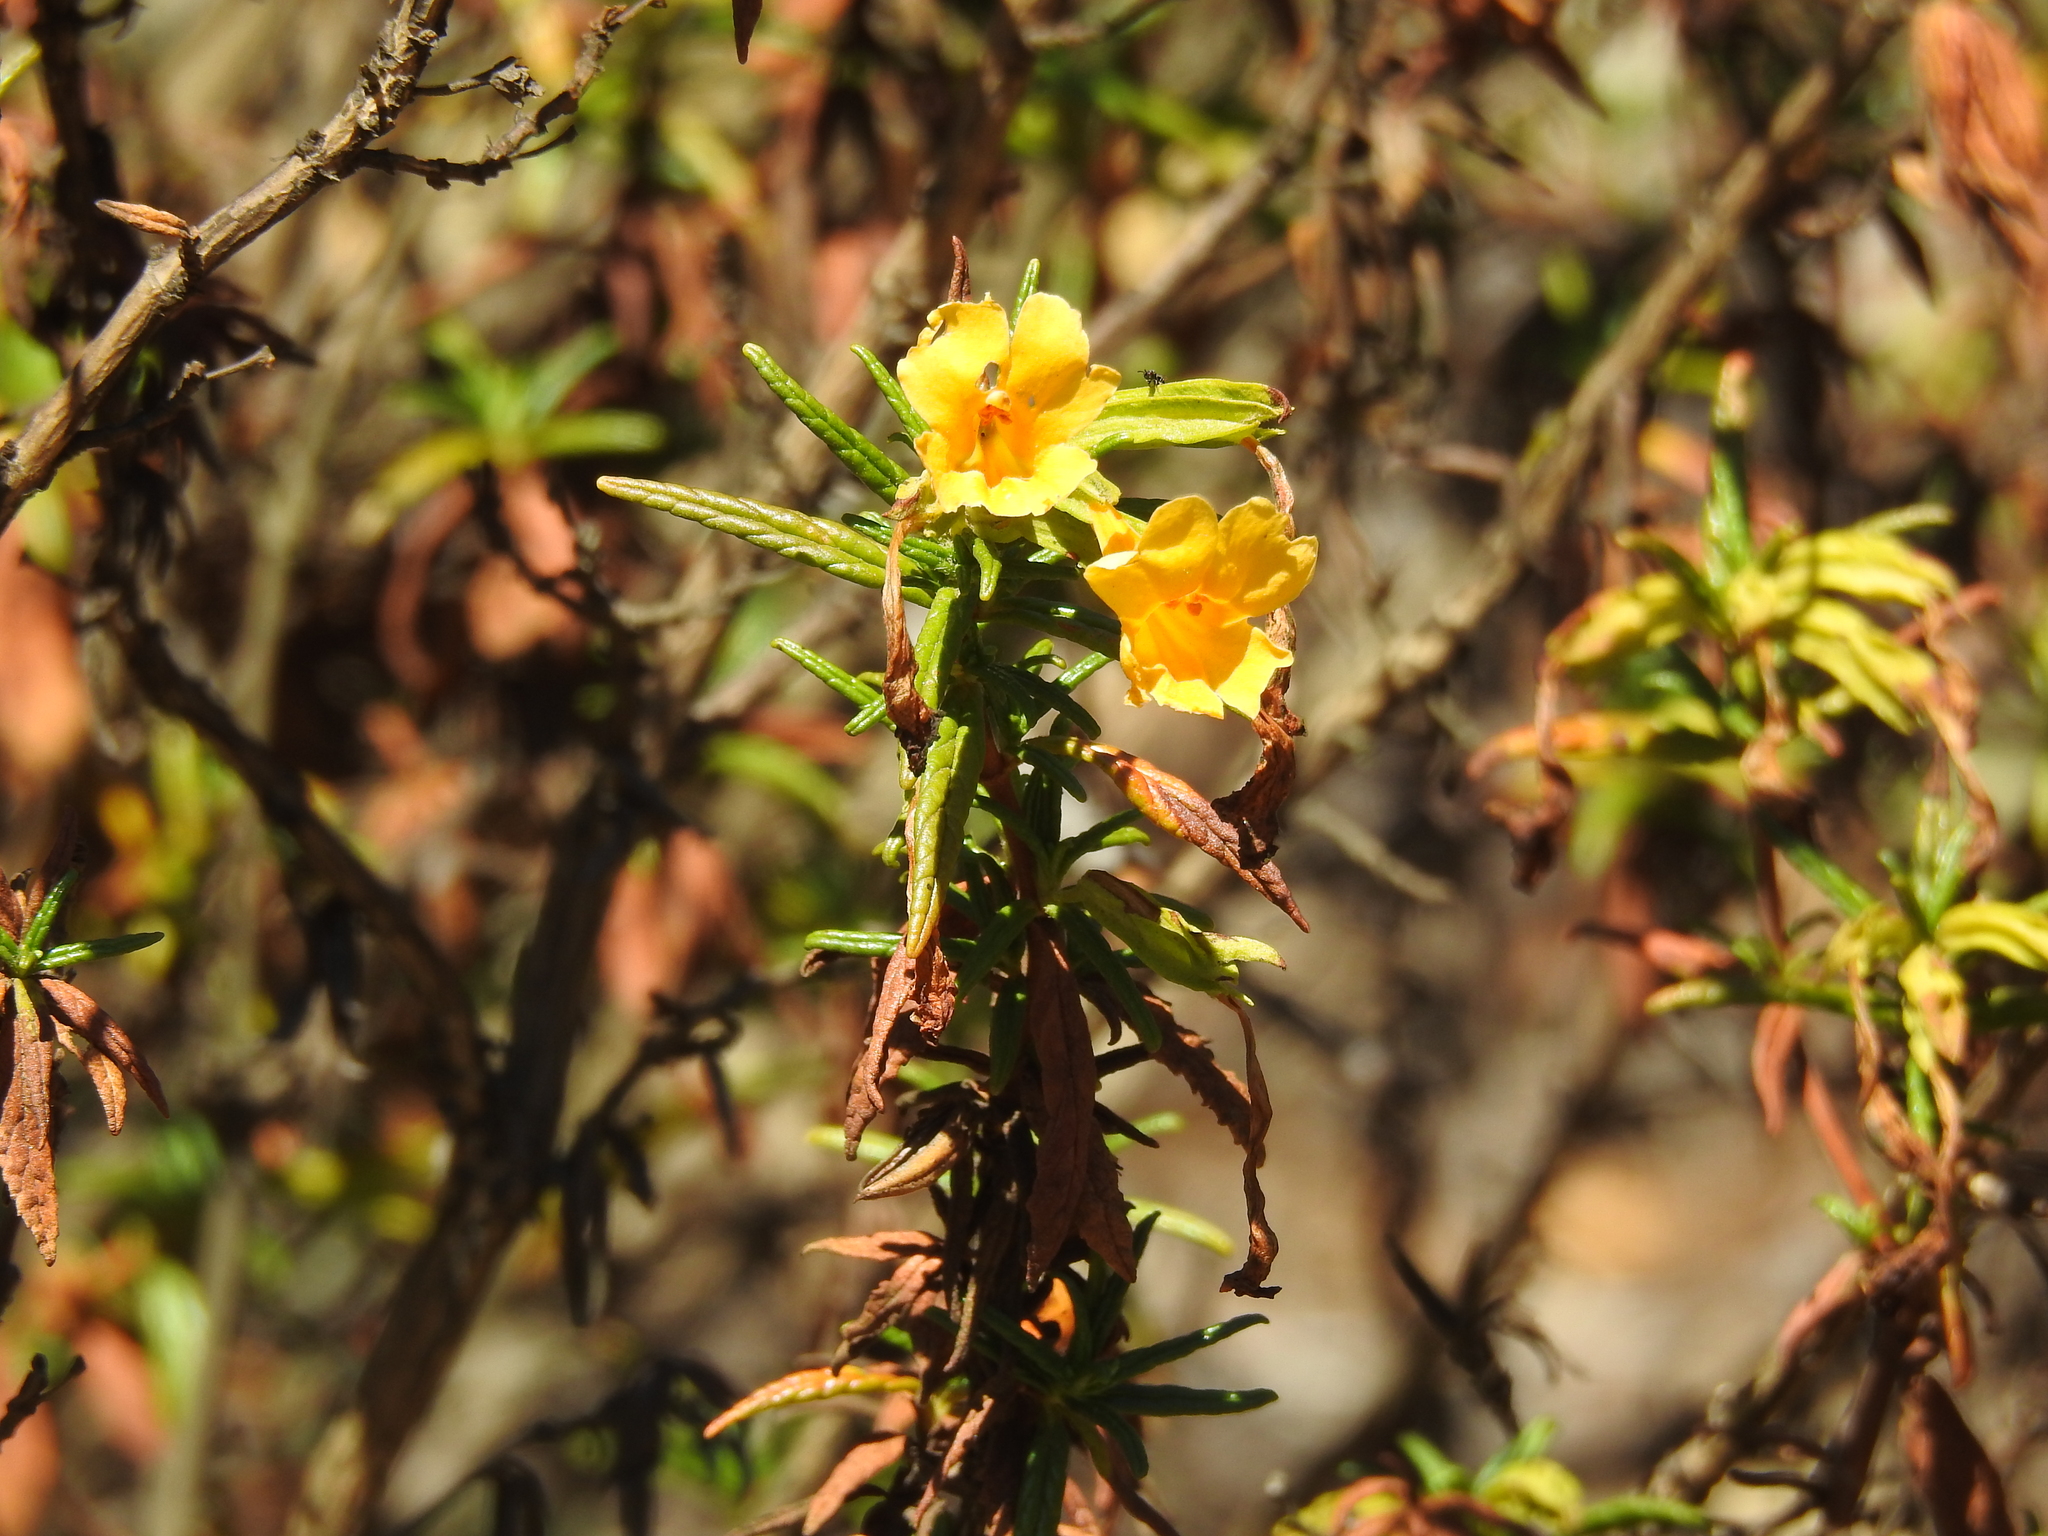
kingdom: Plantae
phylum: Tracheophyta
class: Magnoliopsida
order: Lamiales
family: Phrymaceae
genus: Diplacus
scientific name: Diplacus aurantiacus
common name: Bush monkey-flower
